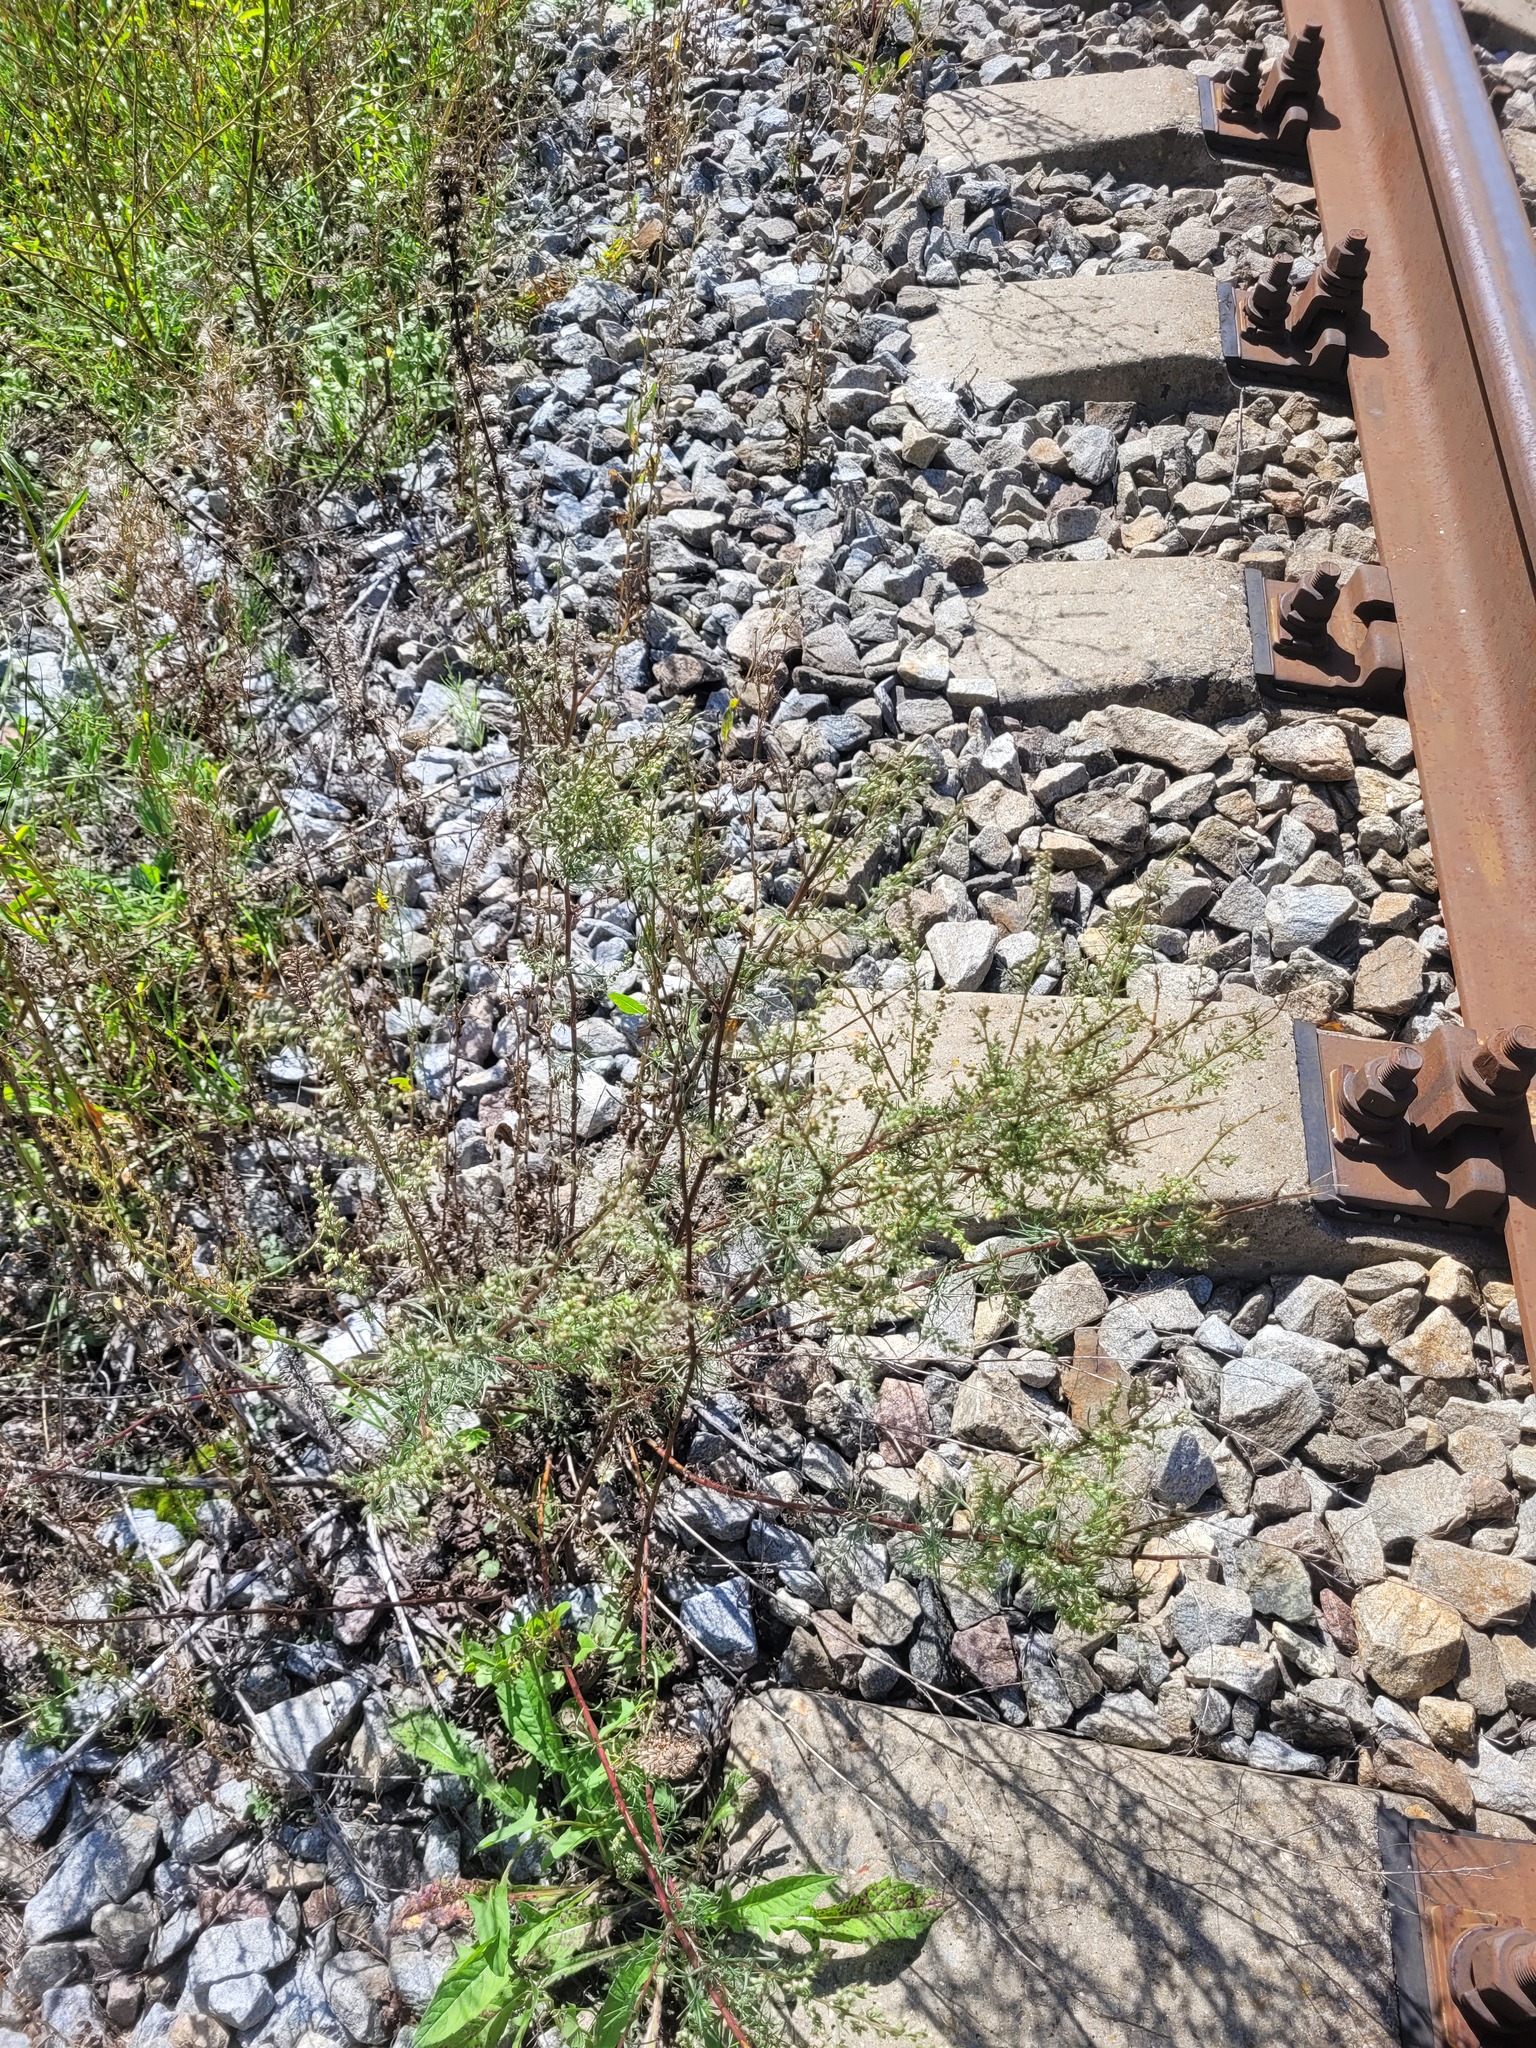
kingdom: Plantae
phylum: Tracheophyta
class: Magnoliopsida
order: Asterales
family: Asteraceae
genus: Artemisia
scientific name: Artemisia campestris
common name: Field wormwood
